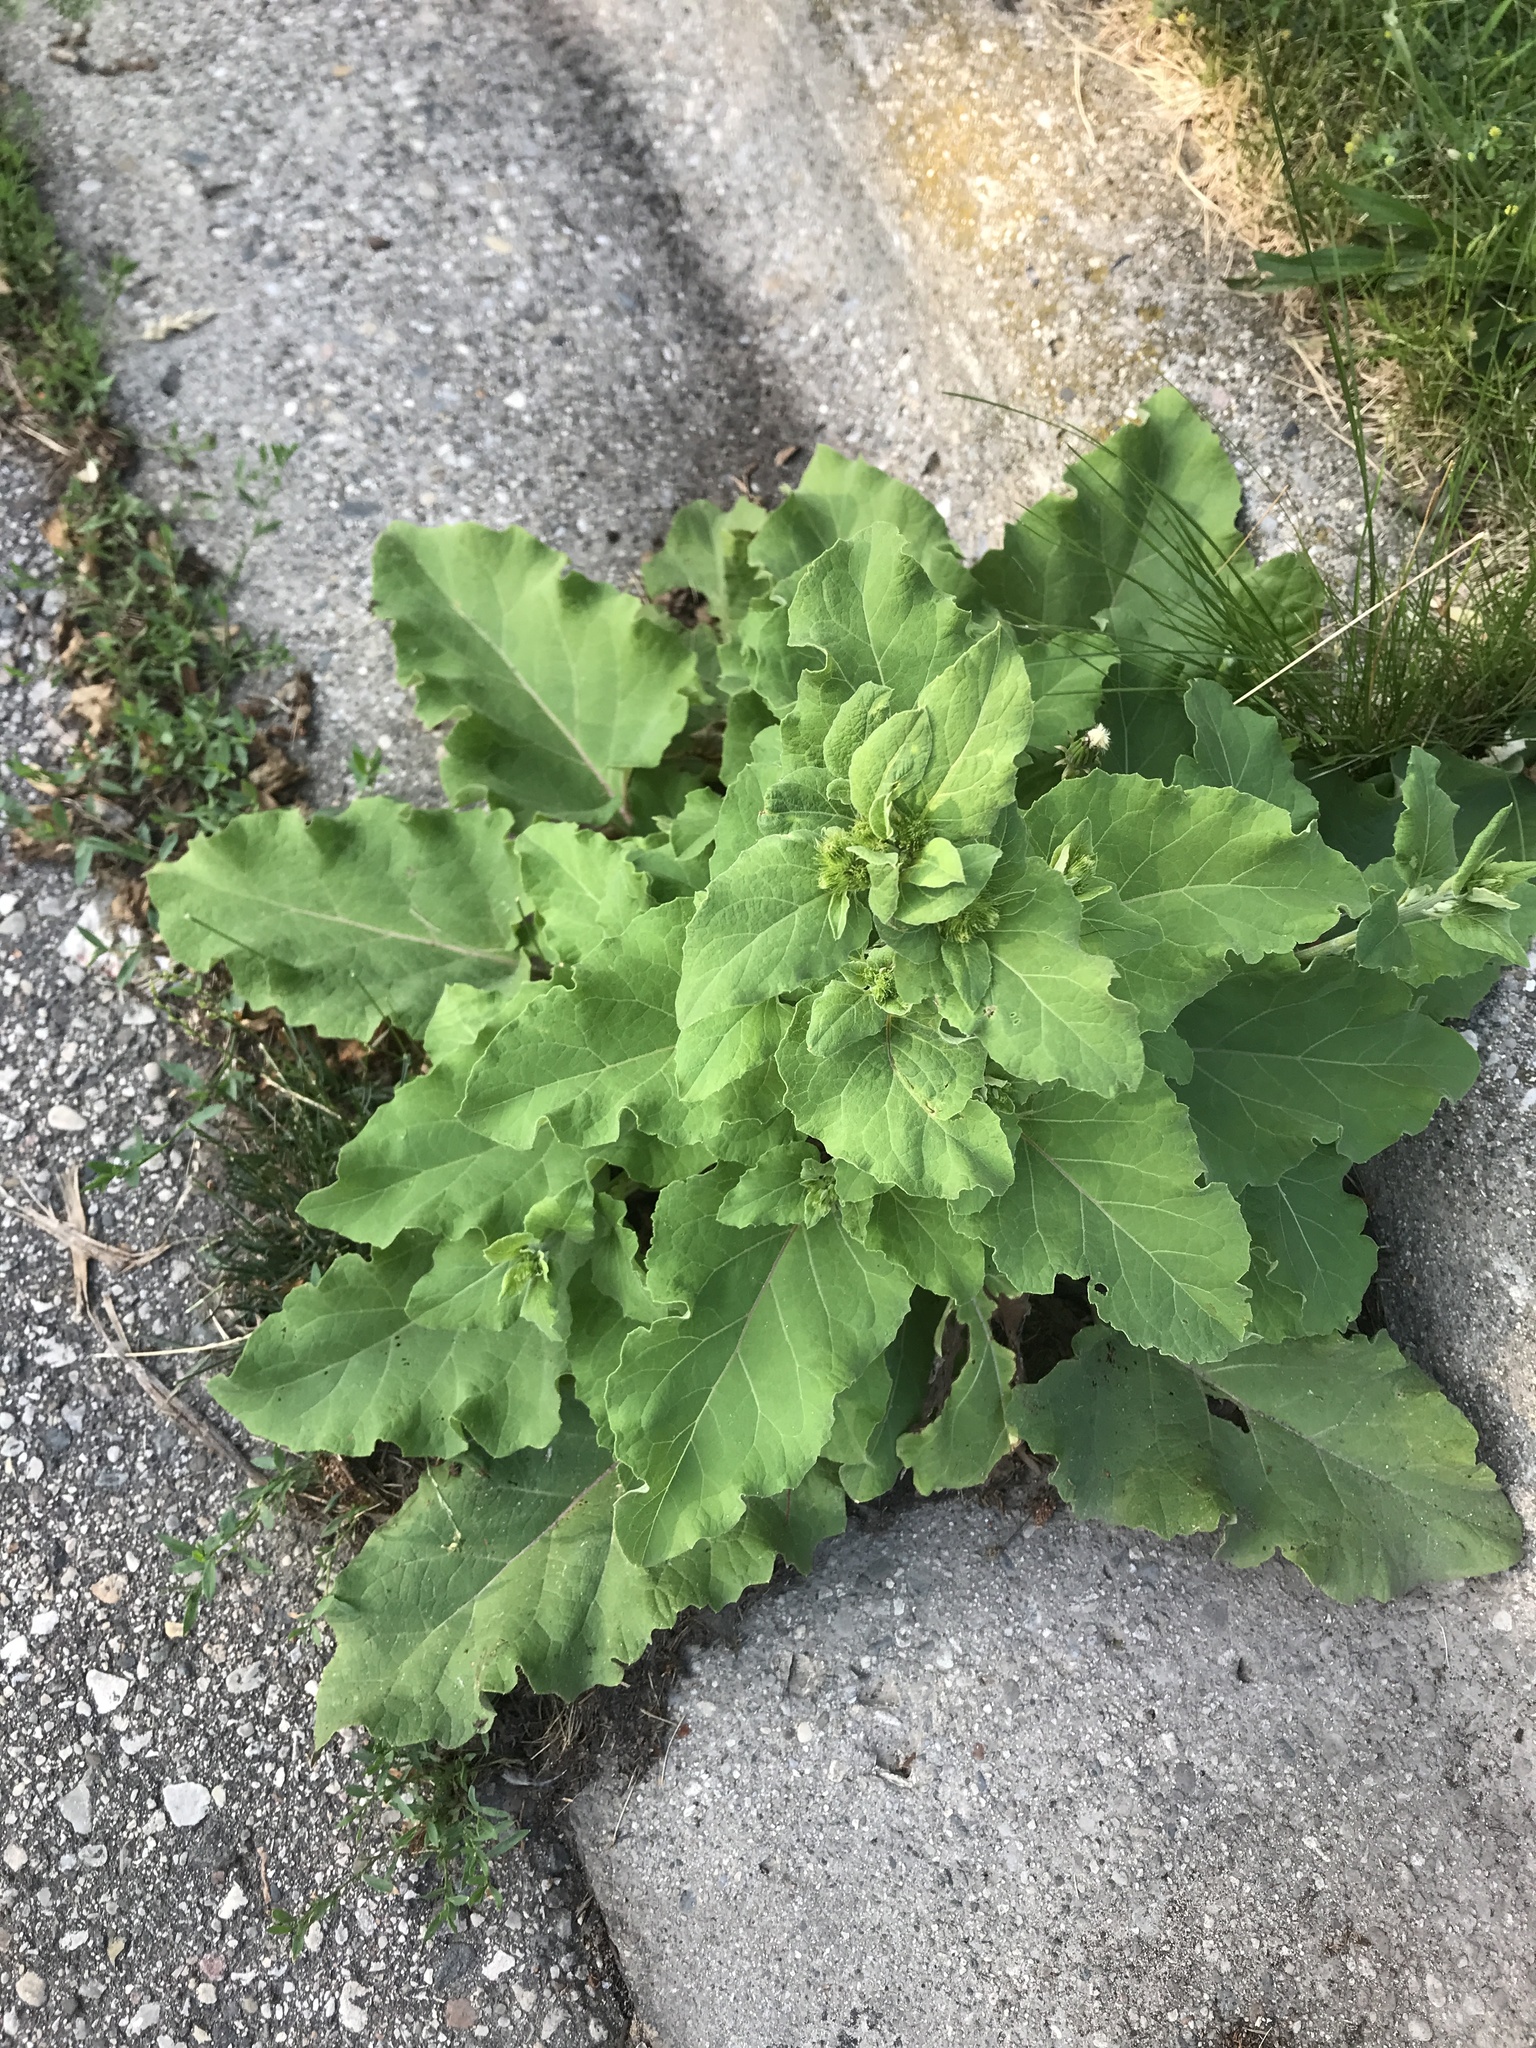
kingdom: Plantae
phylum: Tracheophyta
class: Magnoliopsida
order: Asterales
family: Asteraceae
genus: Arctium
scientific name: Arctium
